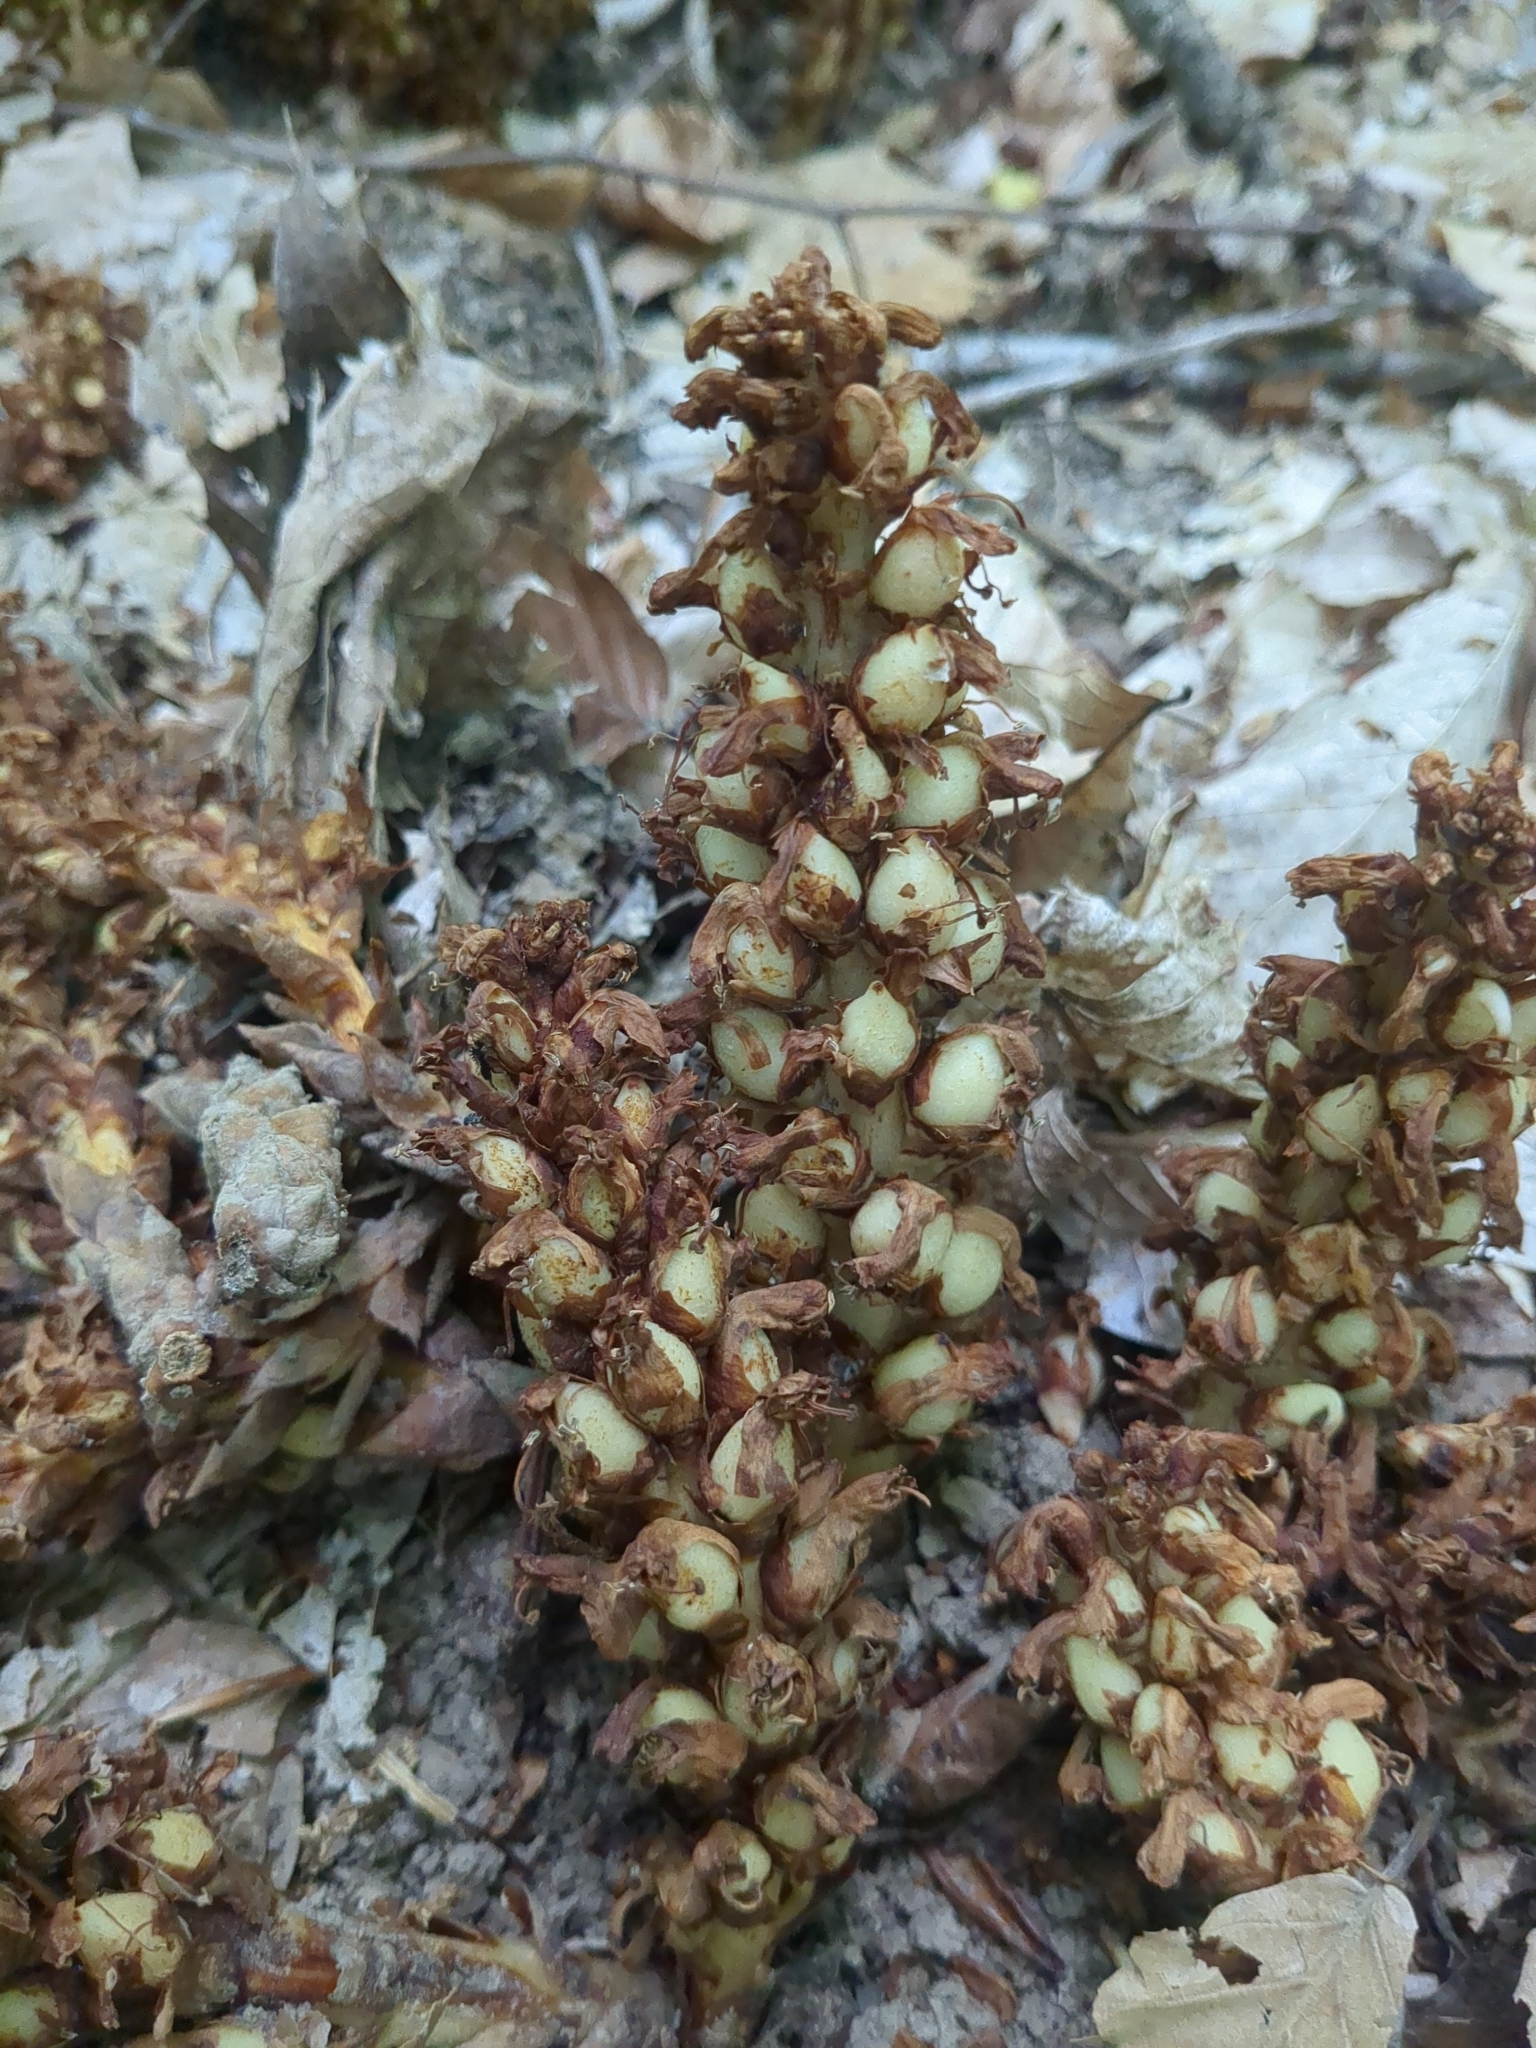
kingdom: Plantae
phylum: Tracheophyta
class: Magnoliopsida
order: Lamiales
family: Orobanchaceae
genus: Conopholis
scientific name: Conopholis americana
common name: American cancer-root
